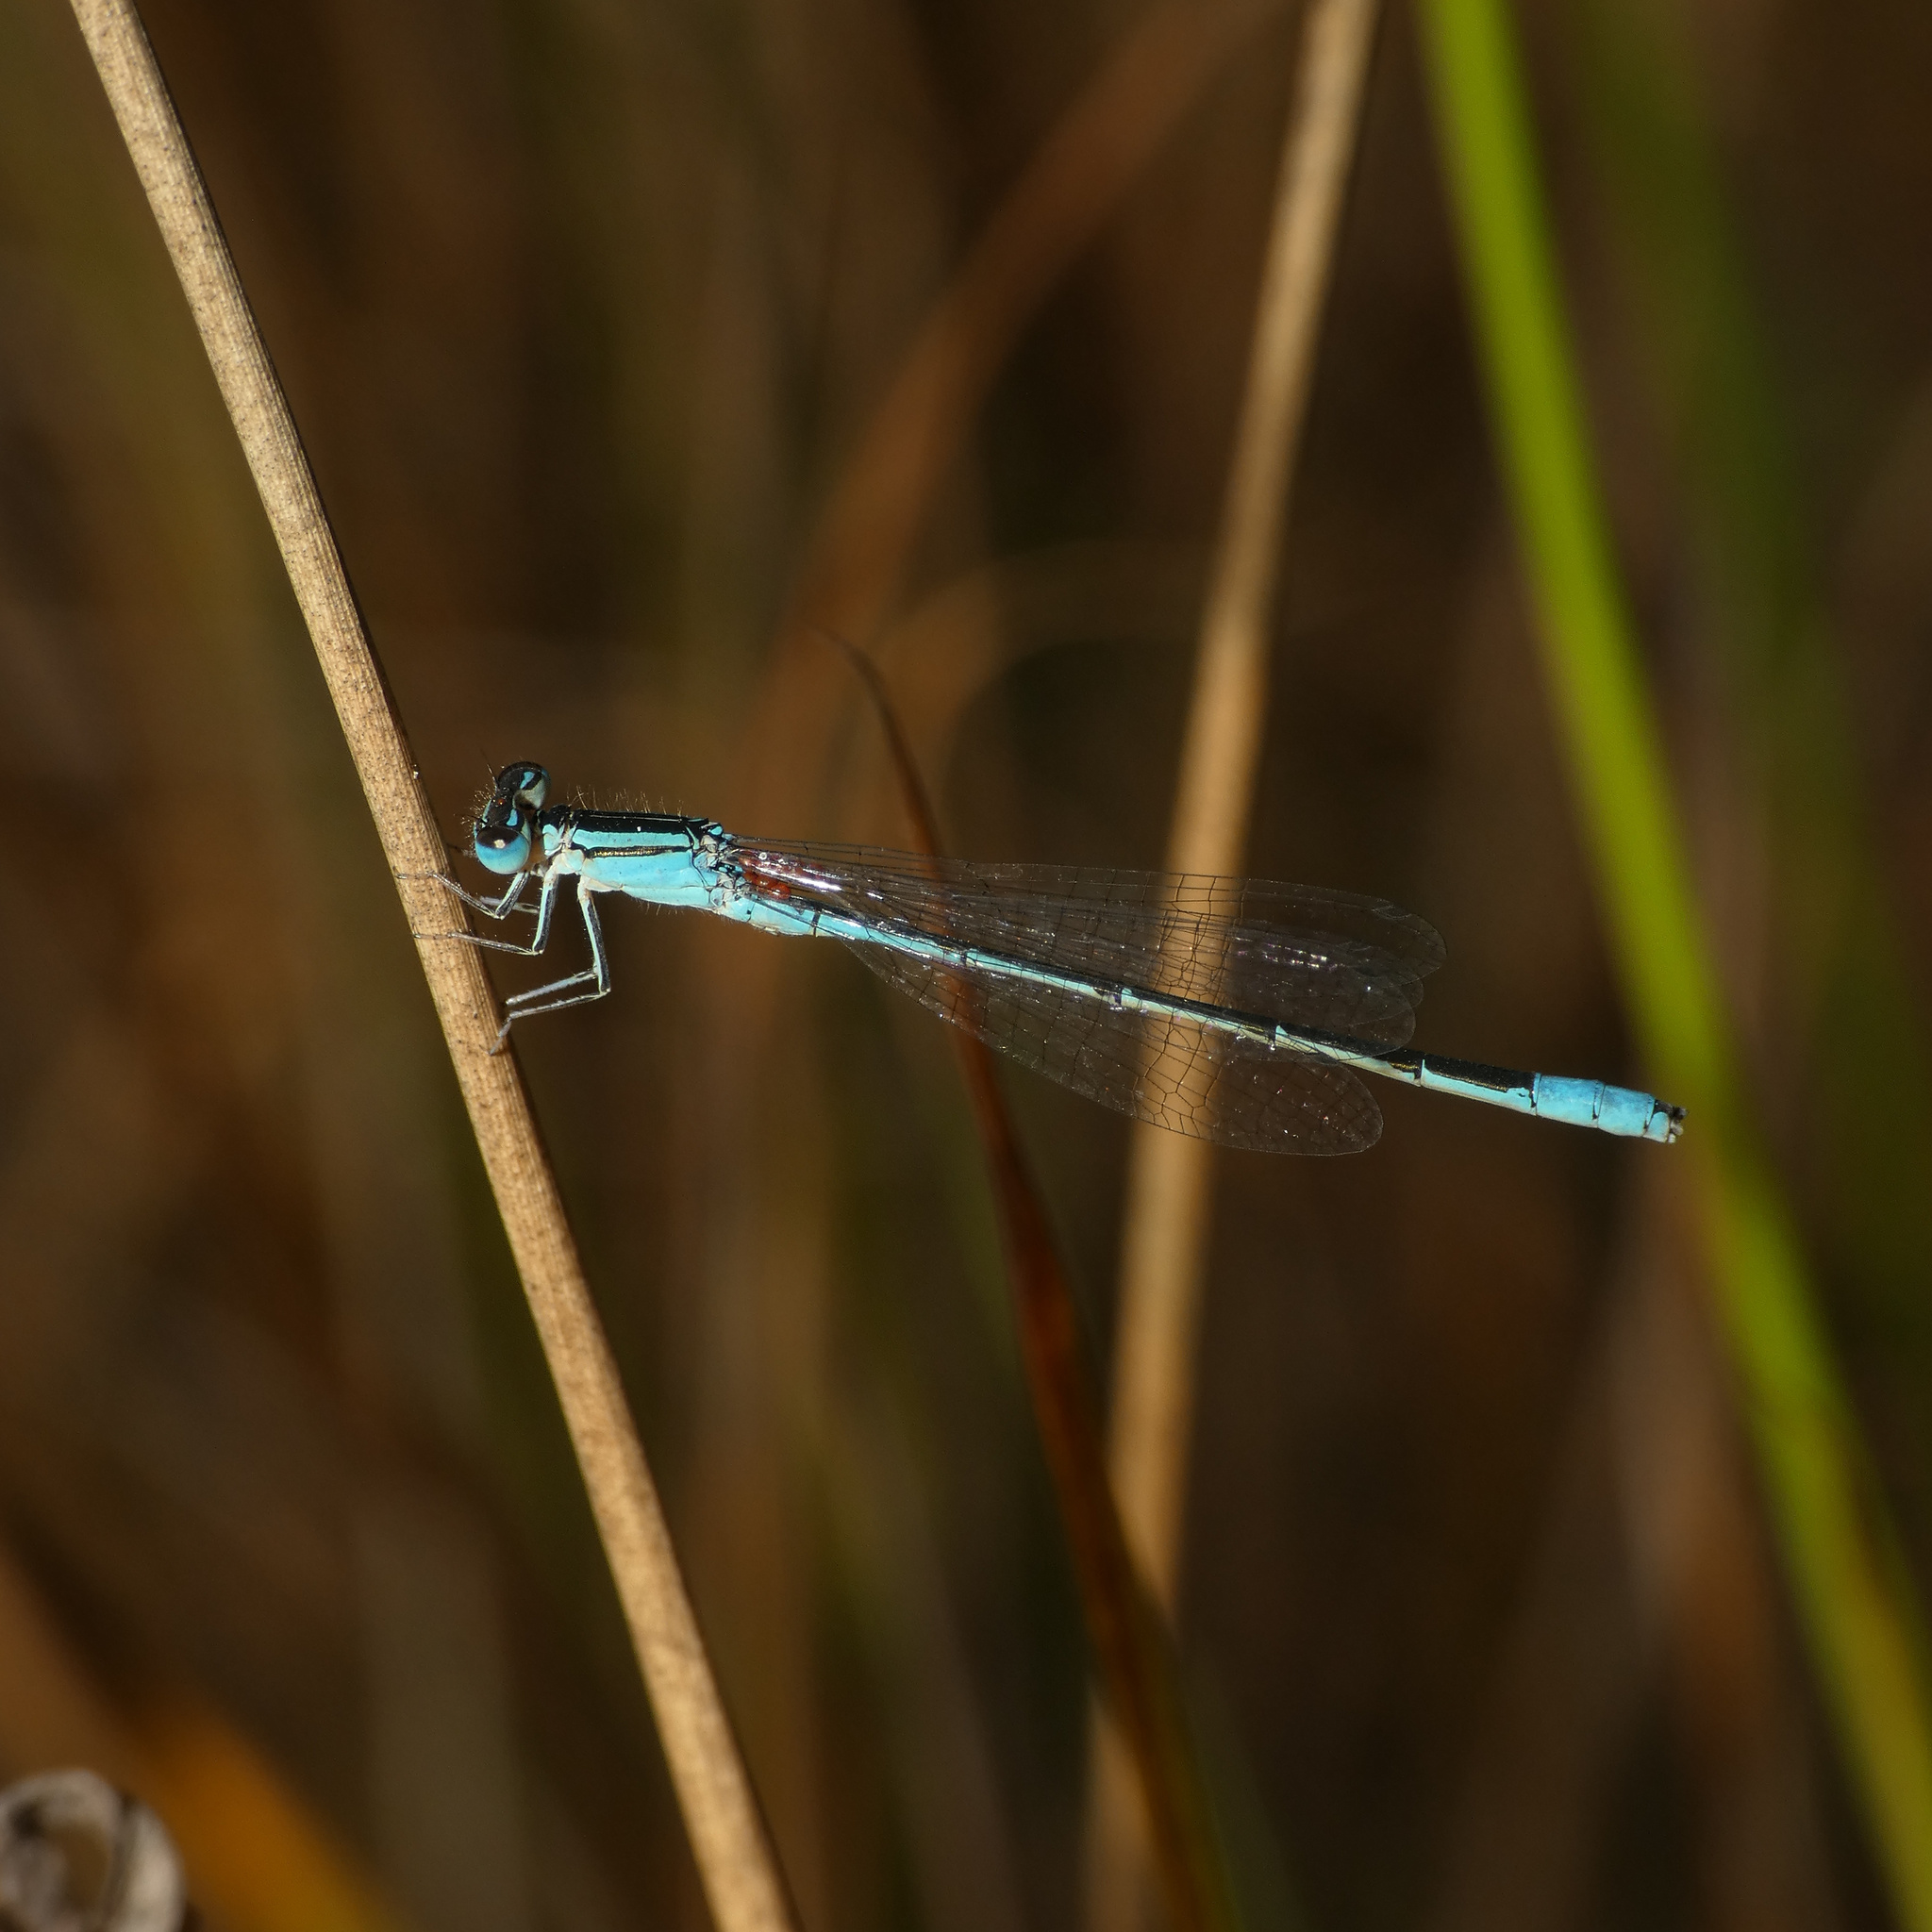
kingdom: Animalia
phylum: Arthropoda
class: Insecta
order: Odonata
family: Coenagrionidae
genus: Africallagma
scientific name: Africallagma glaucum
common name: Swamp bluet
